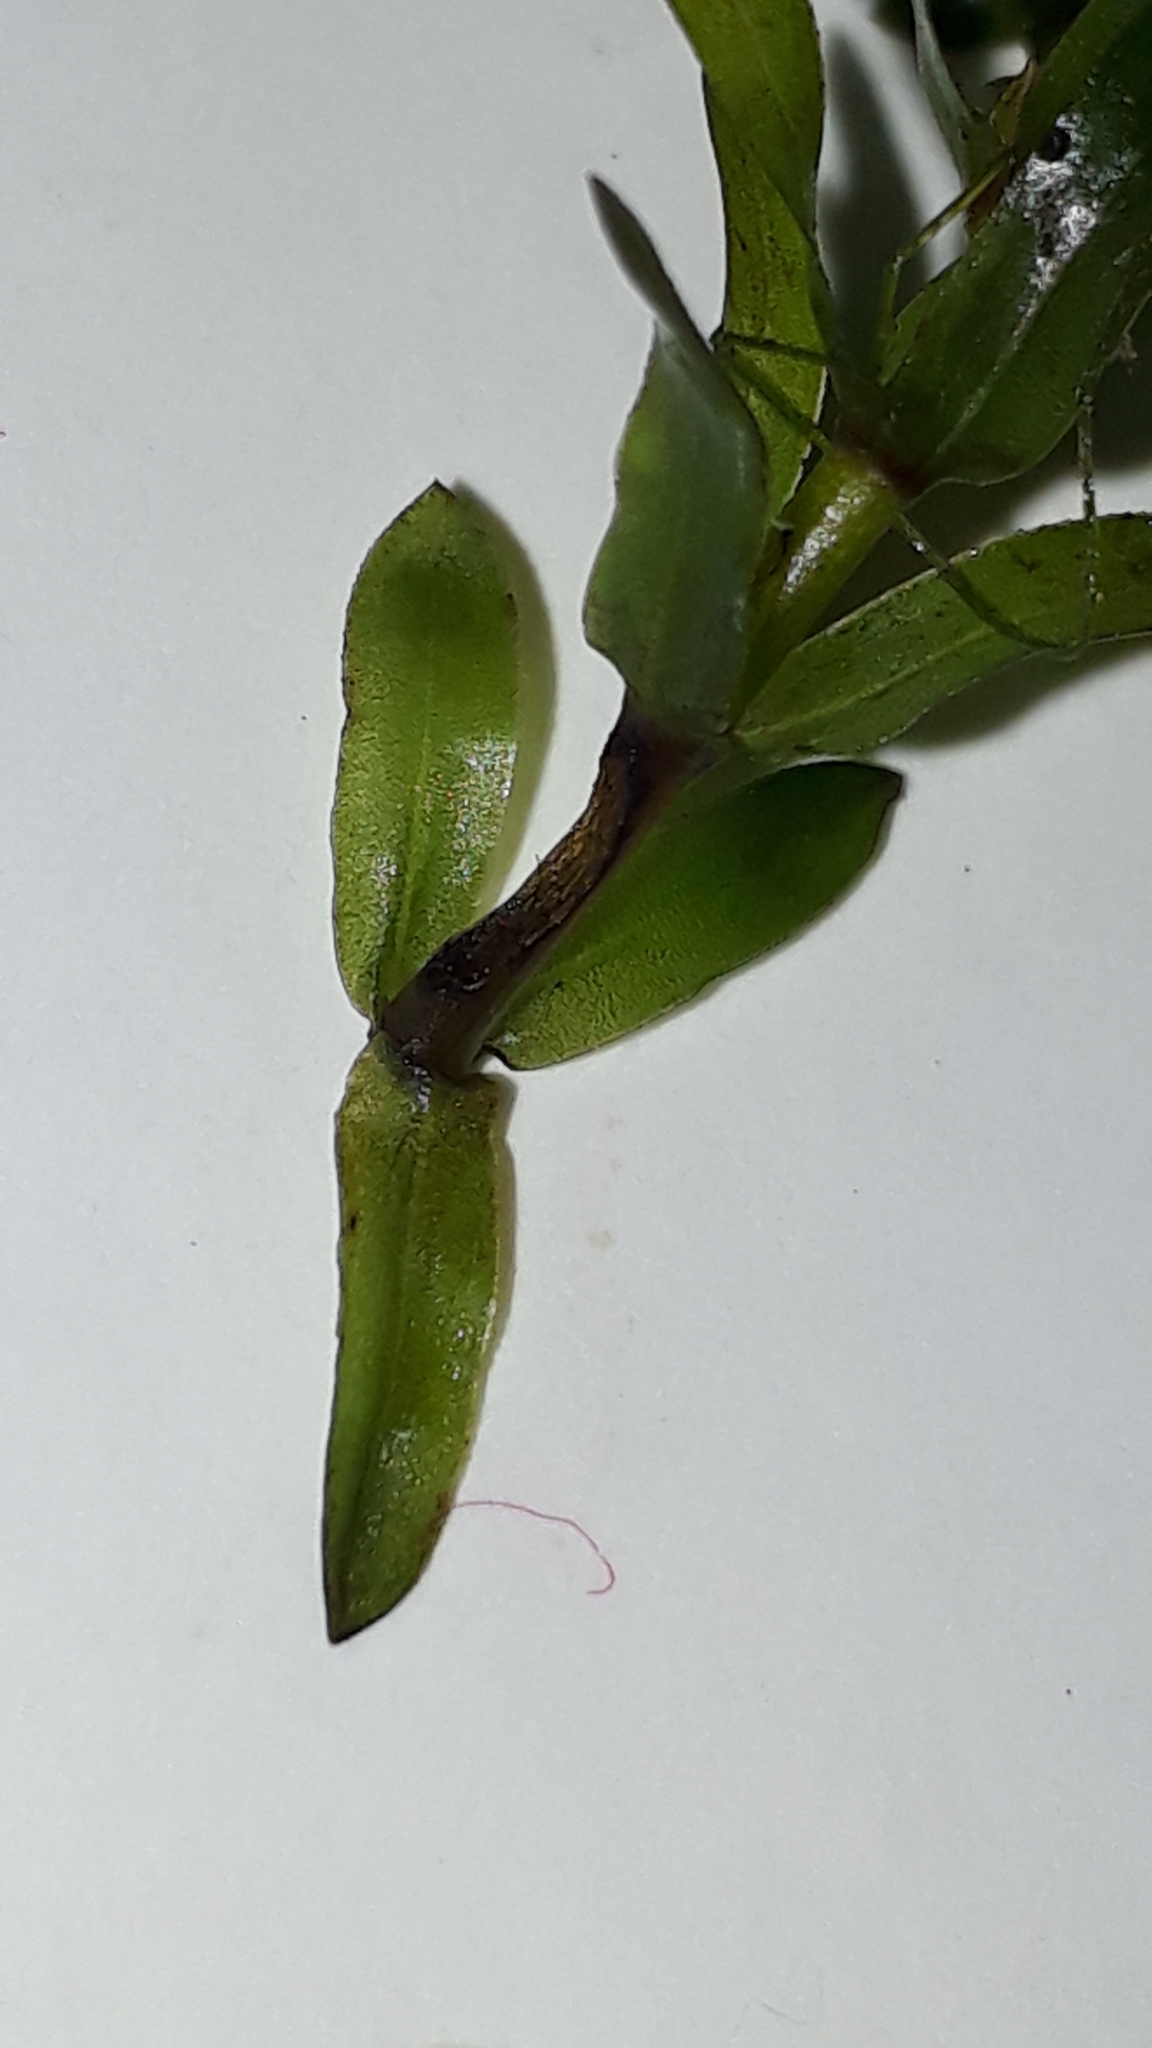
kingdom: Plantae
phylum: Tracheophyta
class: Liliopsida
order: Alismatales
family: Hydrocharitaceae
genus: Elodea
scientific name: Elodea canadensis
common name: Canadian waterweed
